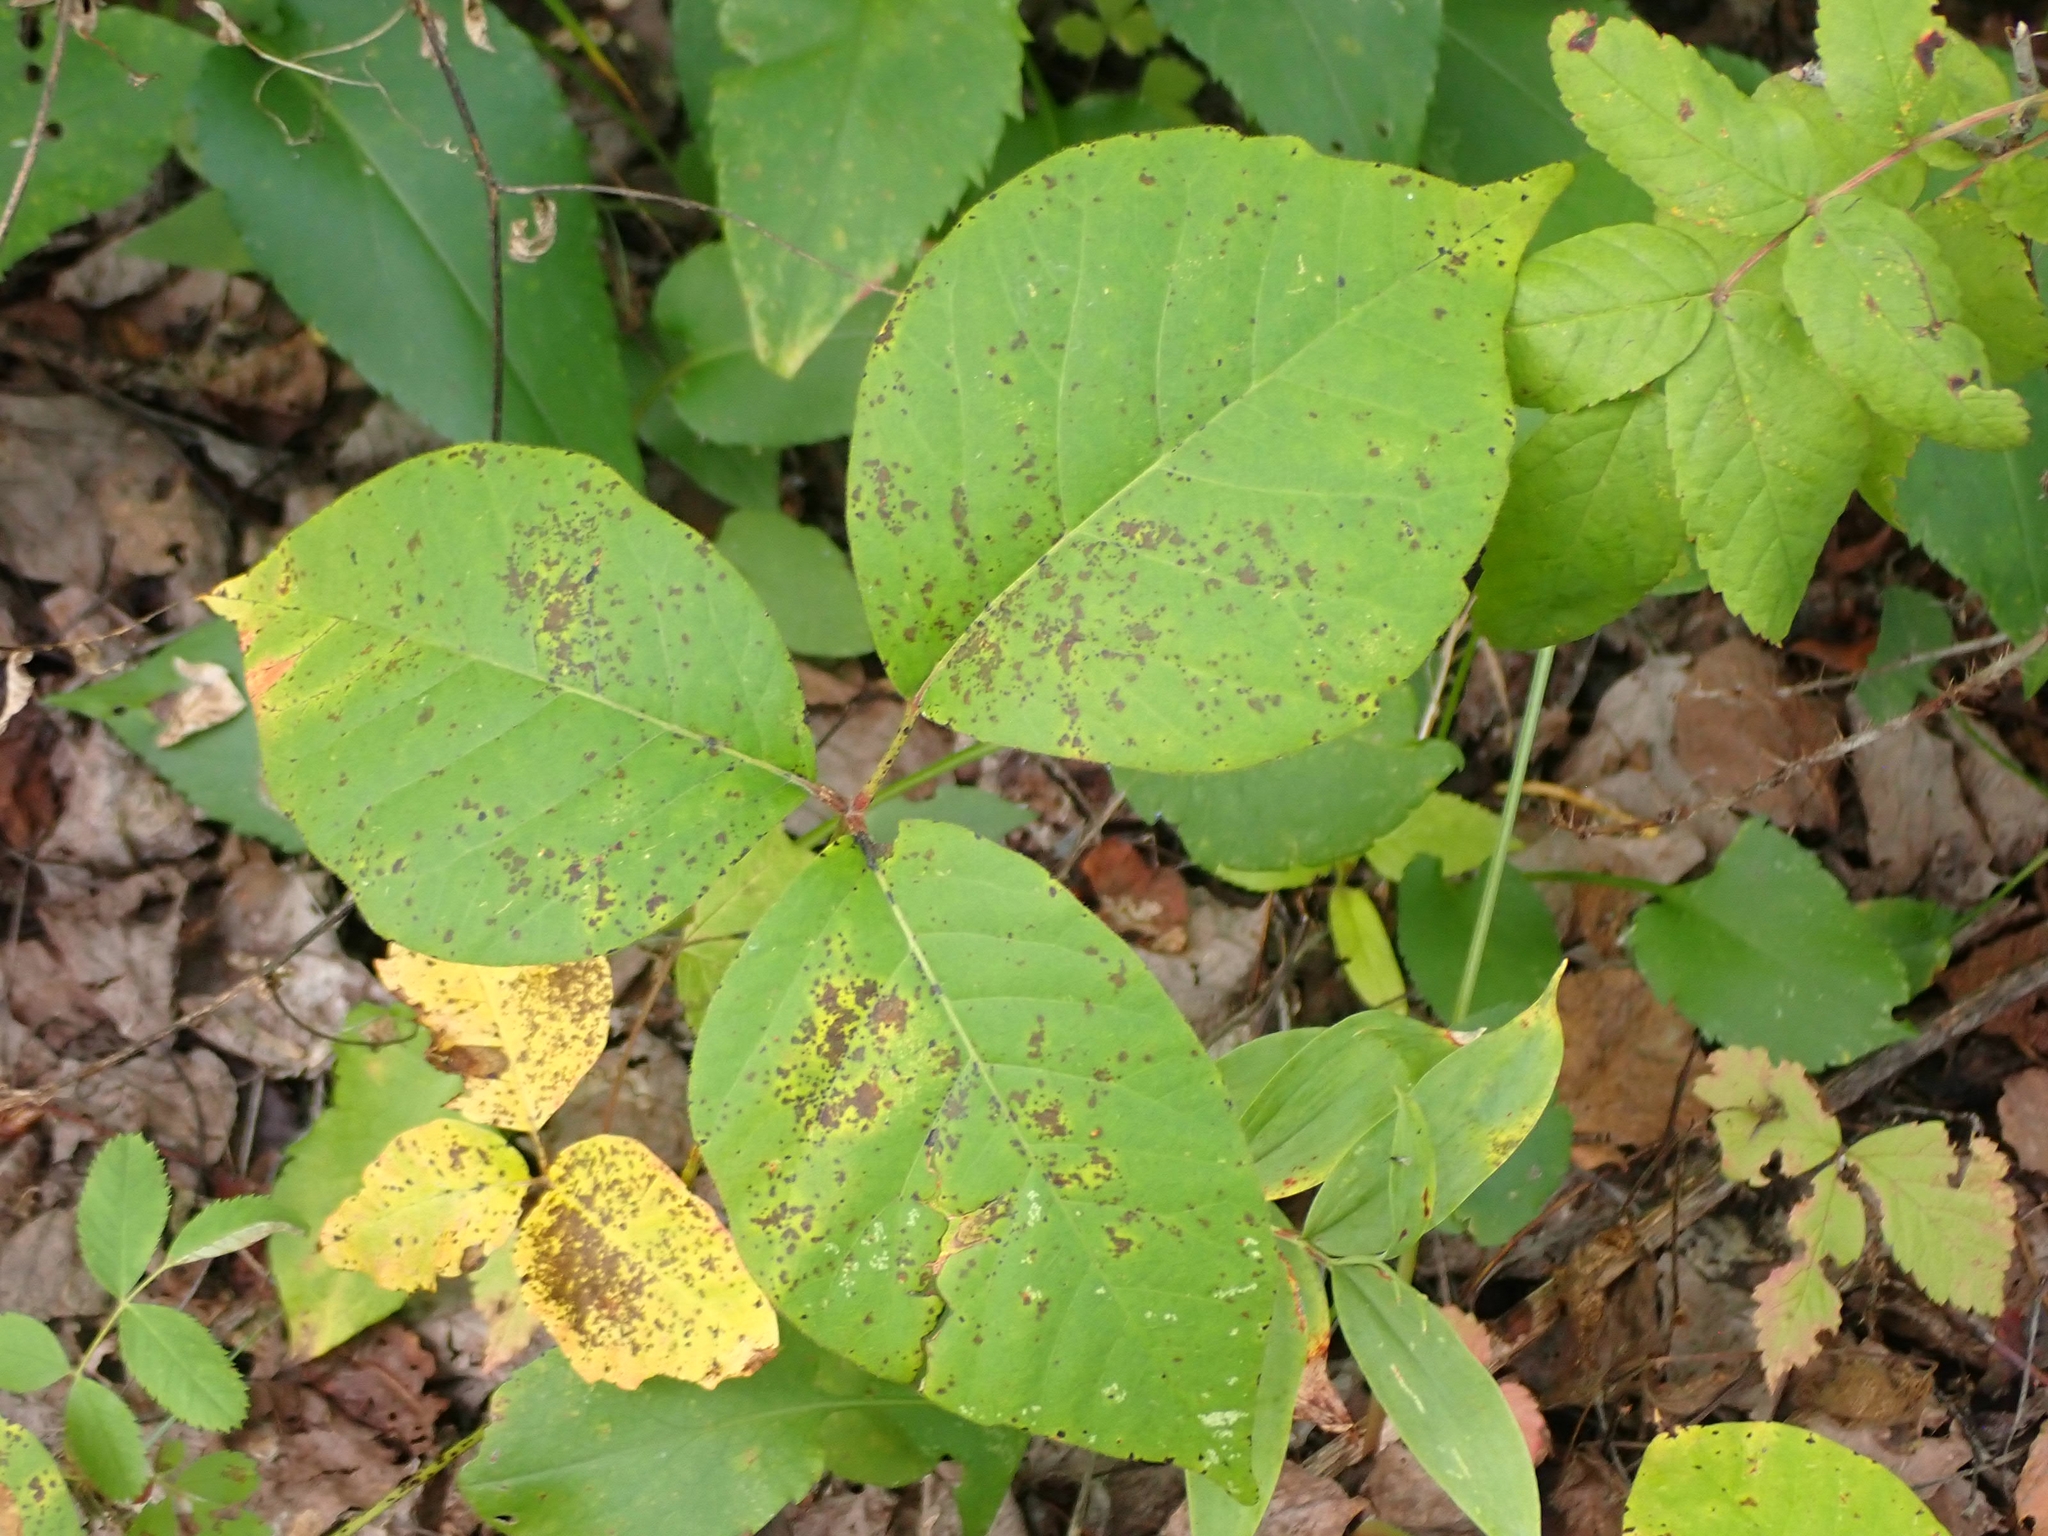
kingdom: Plantae
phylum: Tracheophyta
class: Magnoliopsida
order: Sapindales
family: Anacardiaceae
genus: Toxicodendron
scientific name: Toxicodendron rydbergii
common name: Rydberg's poison-ivy
